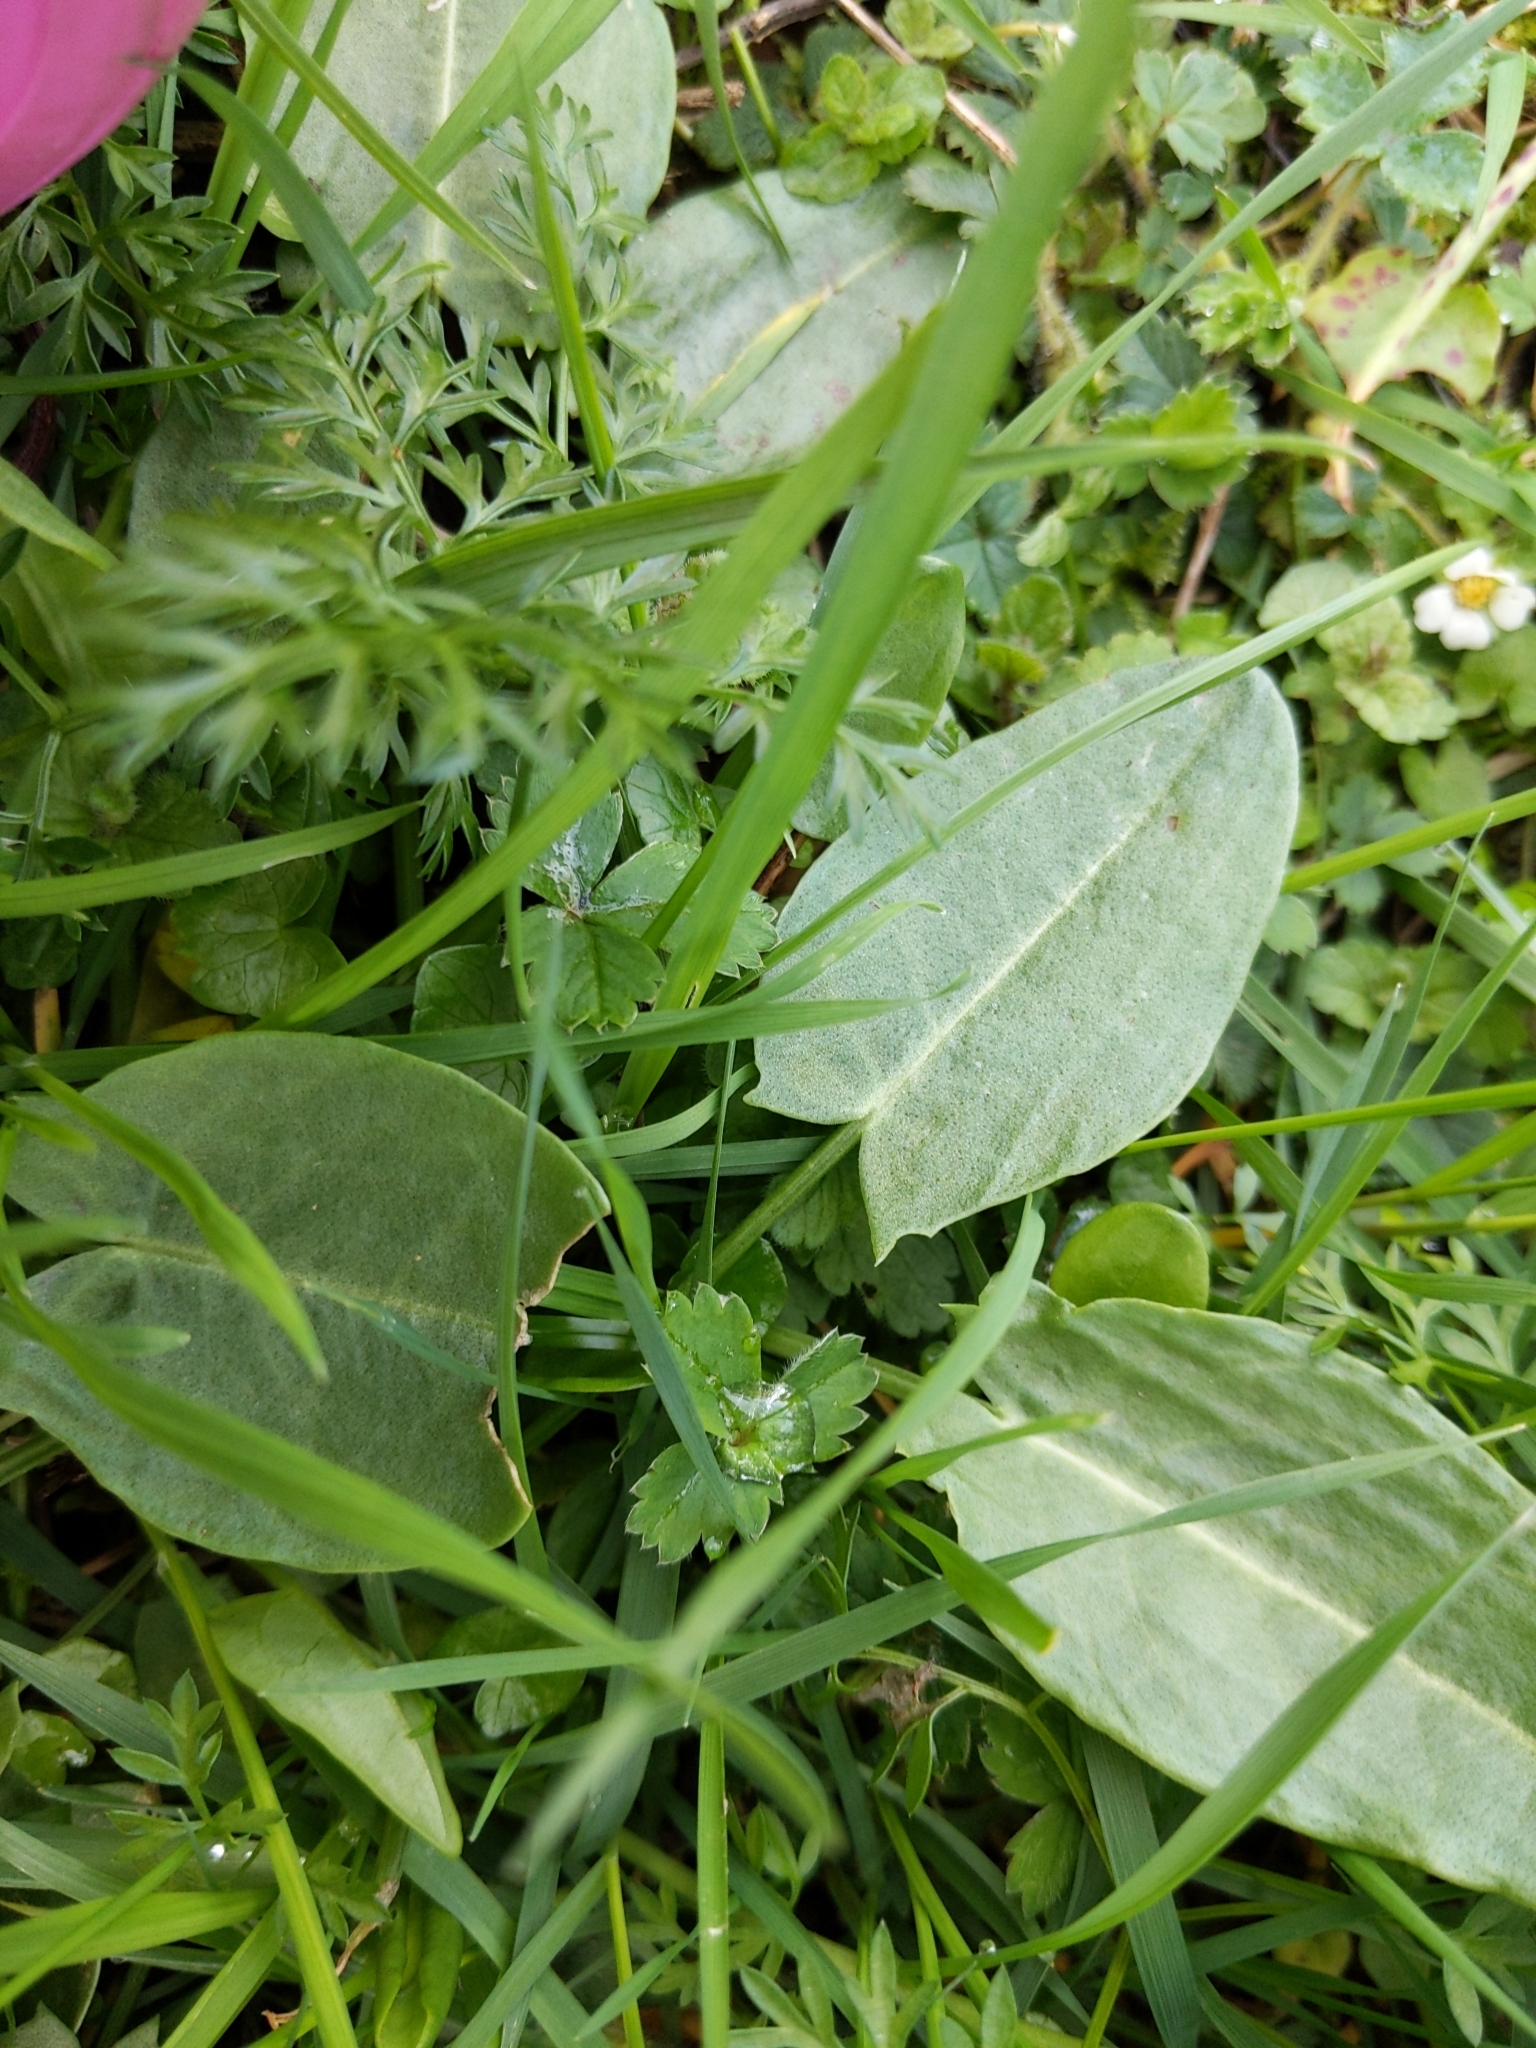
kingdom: Plantae
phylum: Tracheophyta
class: Magnoliopsida
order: Caryophyllales
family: Polygonaceae
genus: Rumex
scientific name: Rumex acetosa
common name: Garden sorrel
